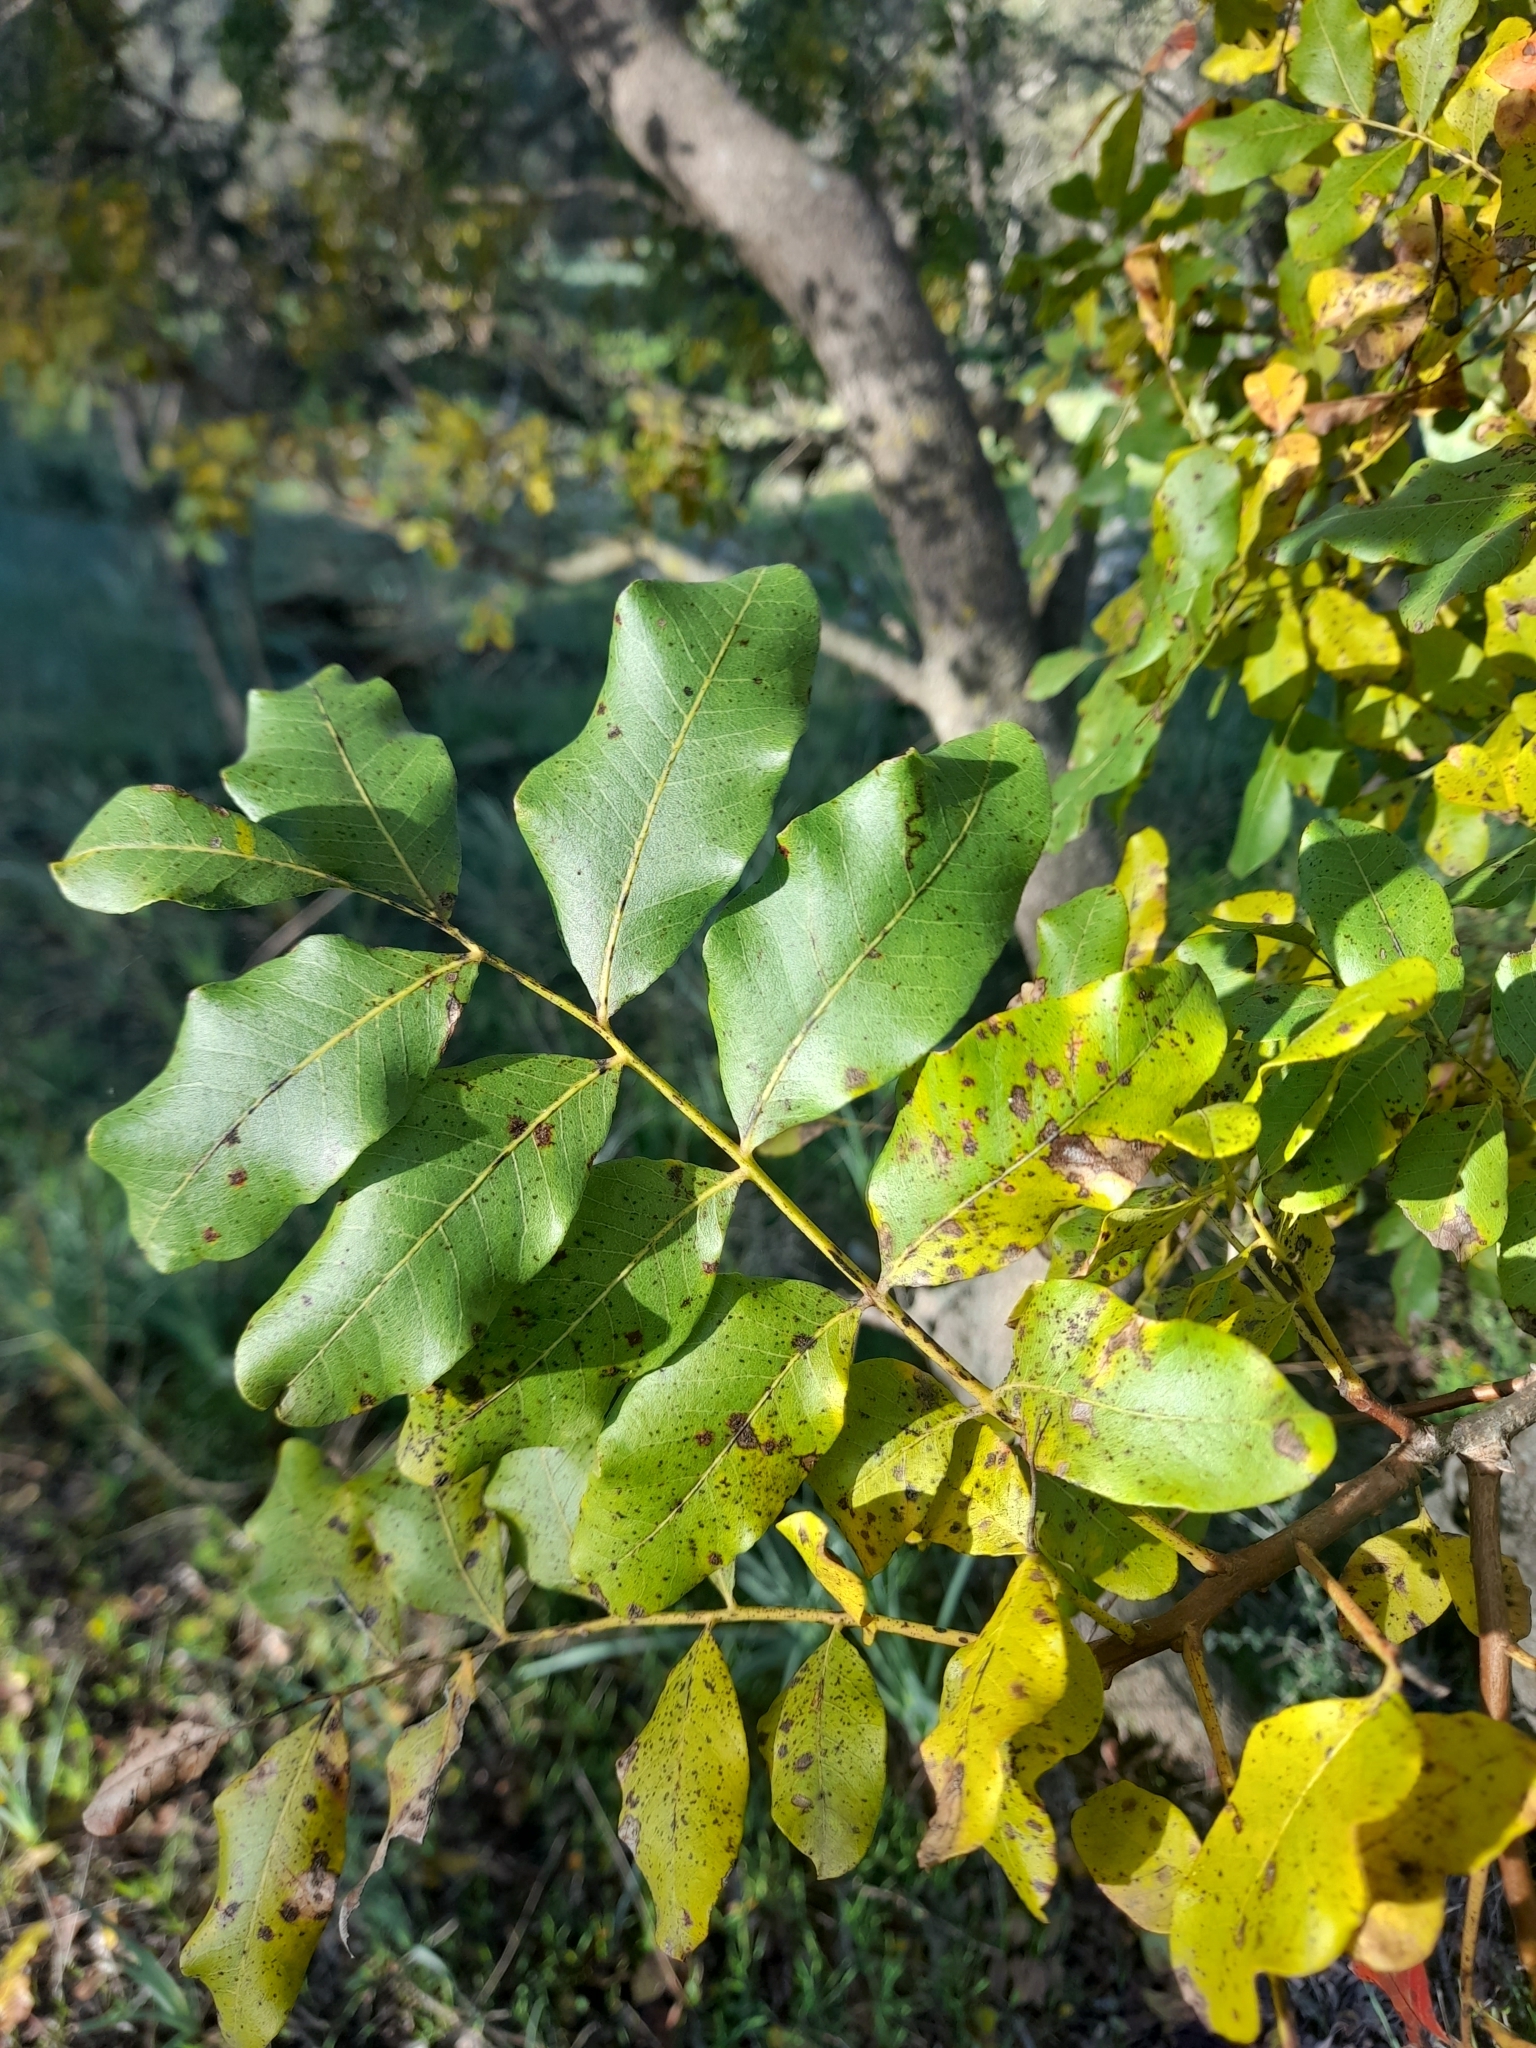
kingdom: Plantae
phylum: Tracheophyta
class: Magnoliopsida
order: Sapindales
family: Anacardiaceae
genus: Pistacia
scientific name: Pistacia terebinthus
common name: Terebinth
